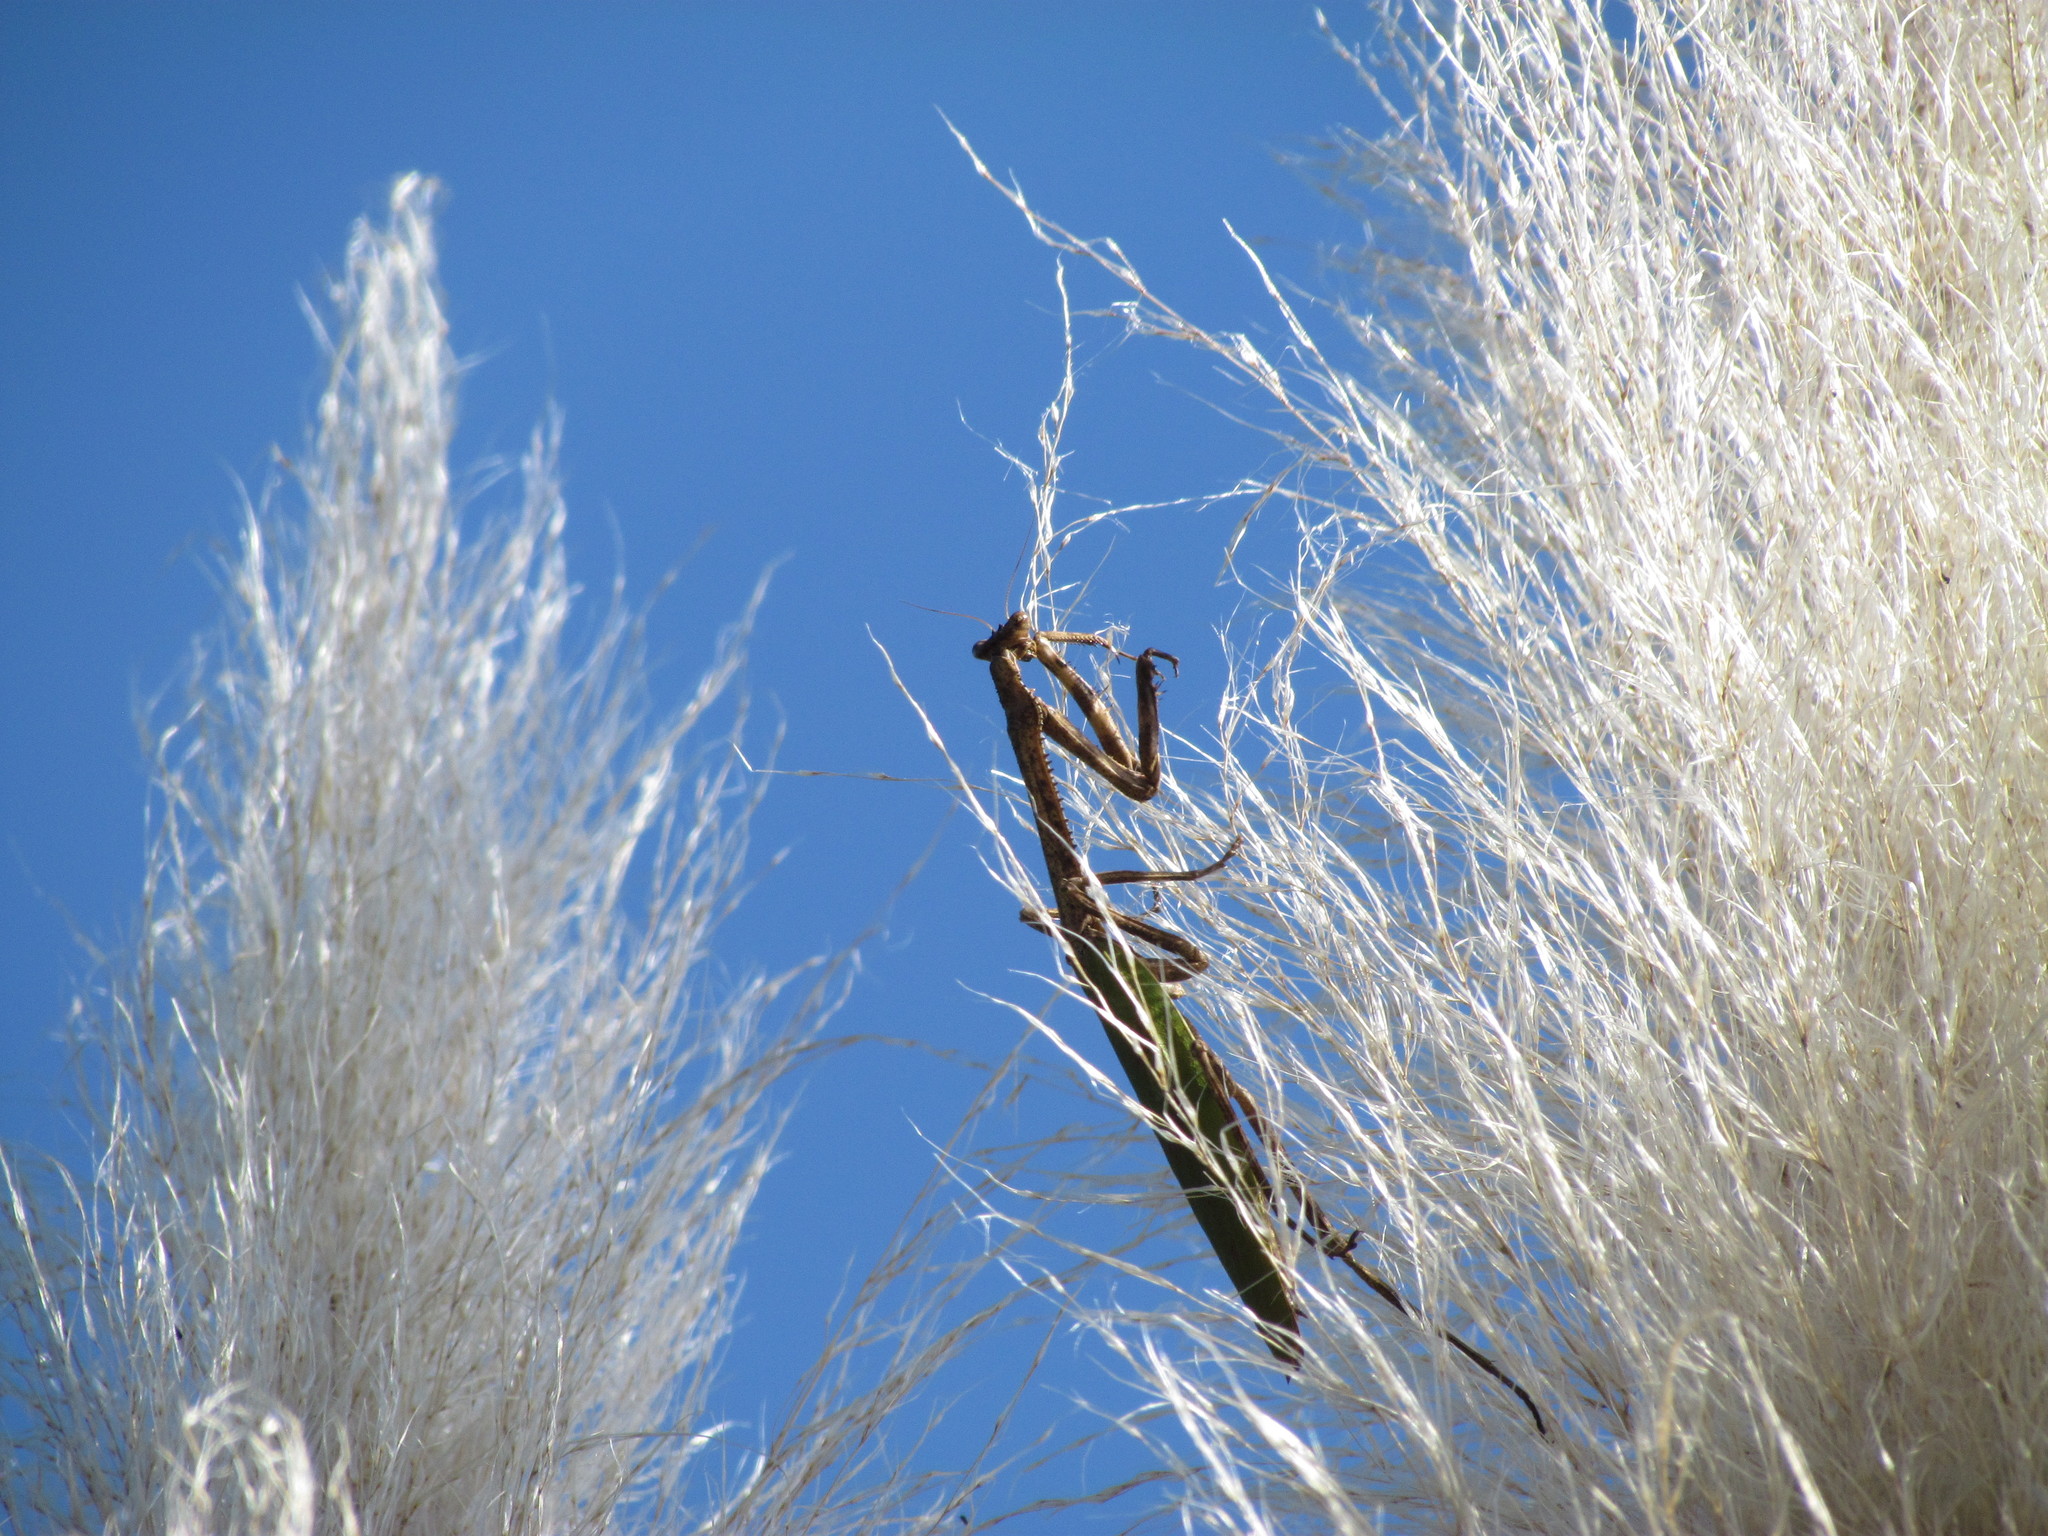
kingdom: Animalia
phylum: Arthropoda
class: Insecta
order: Mantodea
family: Mantidae
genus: Pseudovates
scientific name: Pseudovates iheringi
